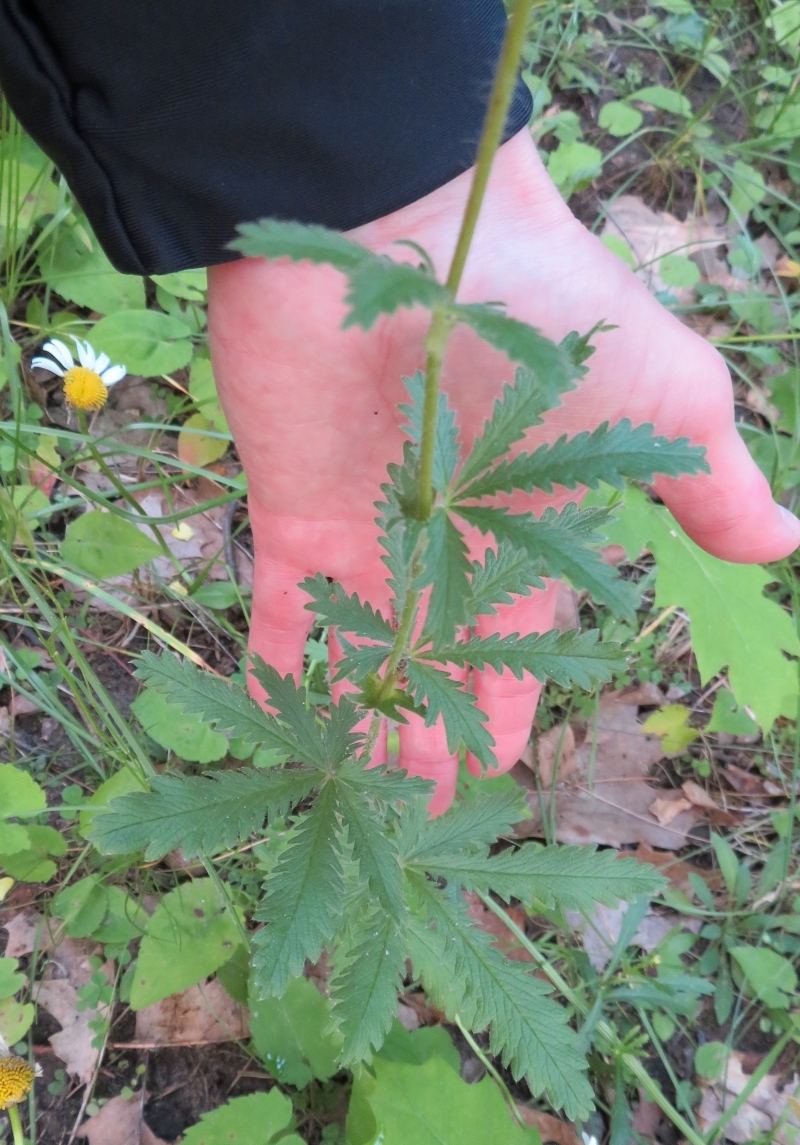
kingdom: Plantae
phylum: Tracheophyta
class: Magnoliopsida
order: Rosales
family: Rosaceae
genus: Potentilla
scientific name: Potentilla recta
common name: Sulphur cinquefoil
